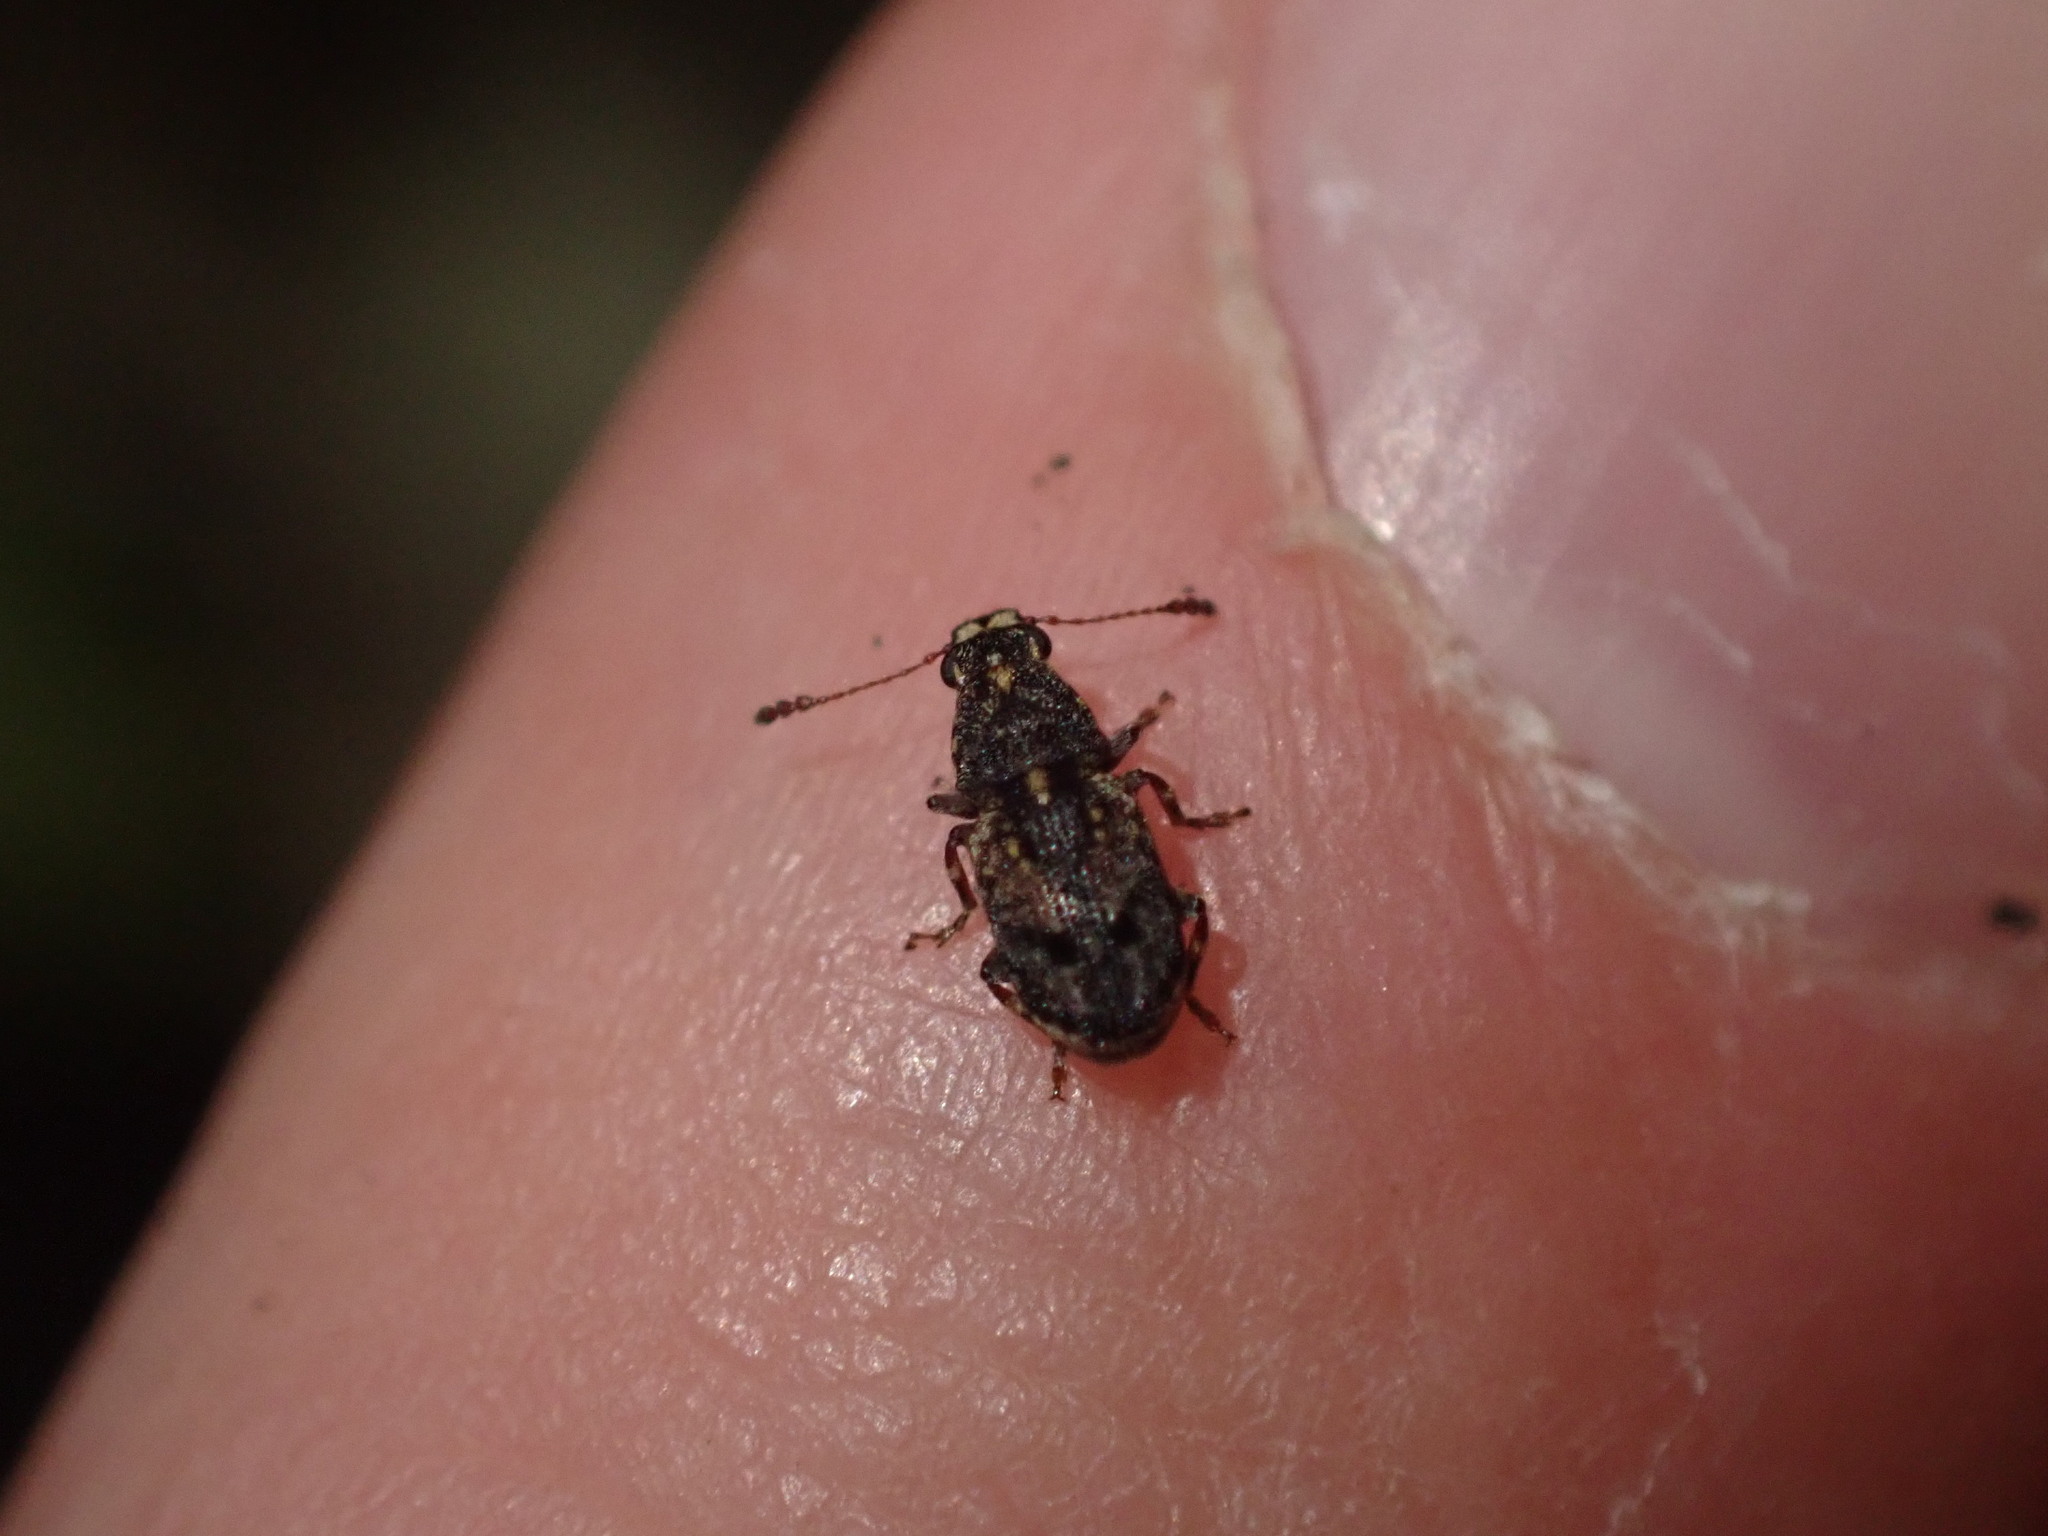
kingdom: Animalia
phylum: Arthropoda
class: Insecta
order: Coleoptera
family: Anthribidae
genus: Pleosporius
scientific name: Pleosporius bullatus
